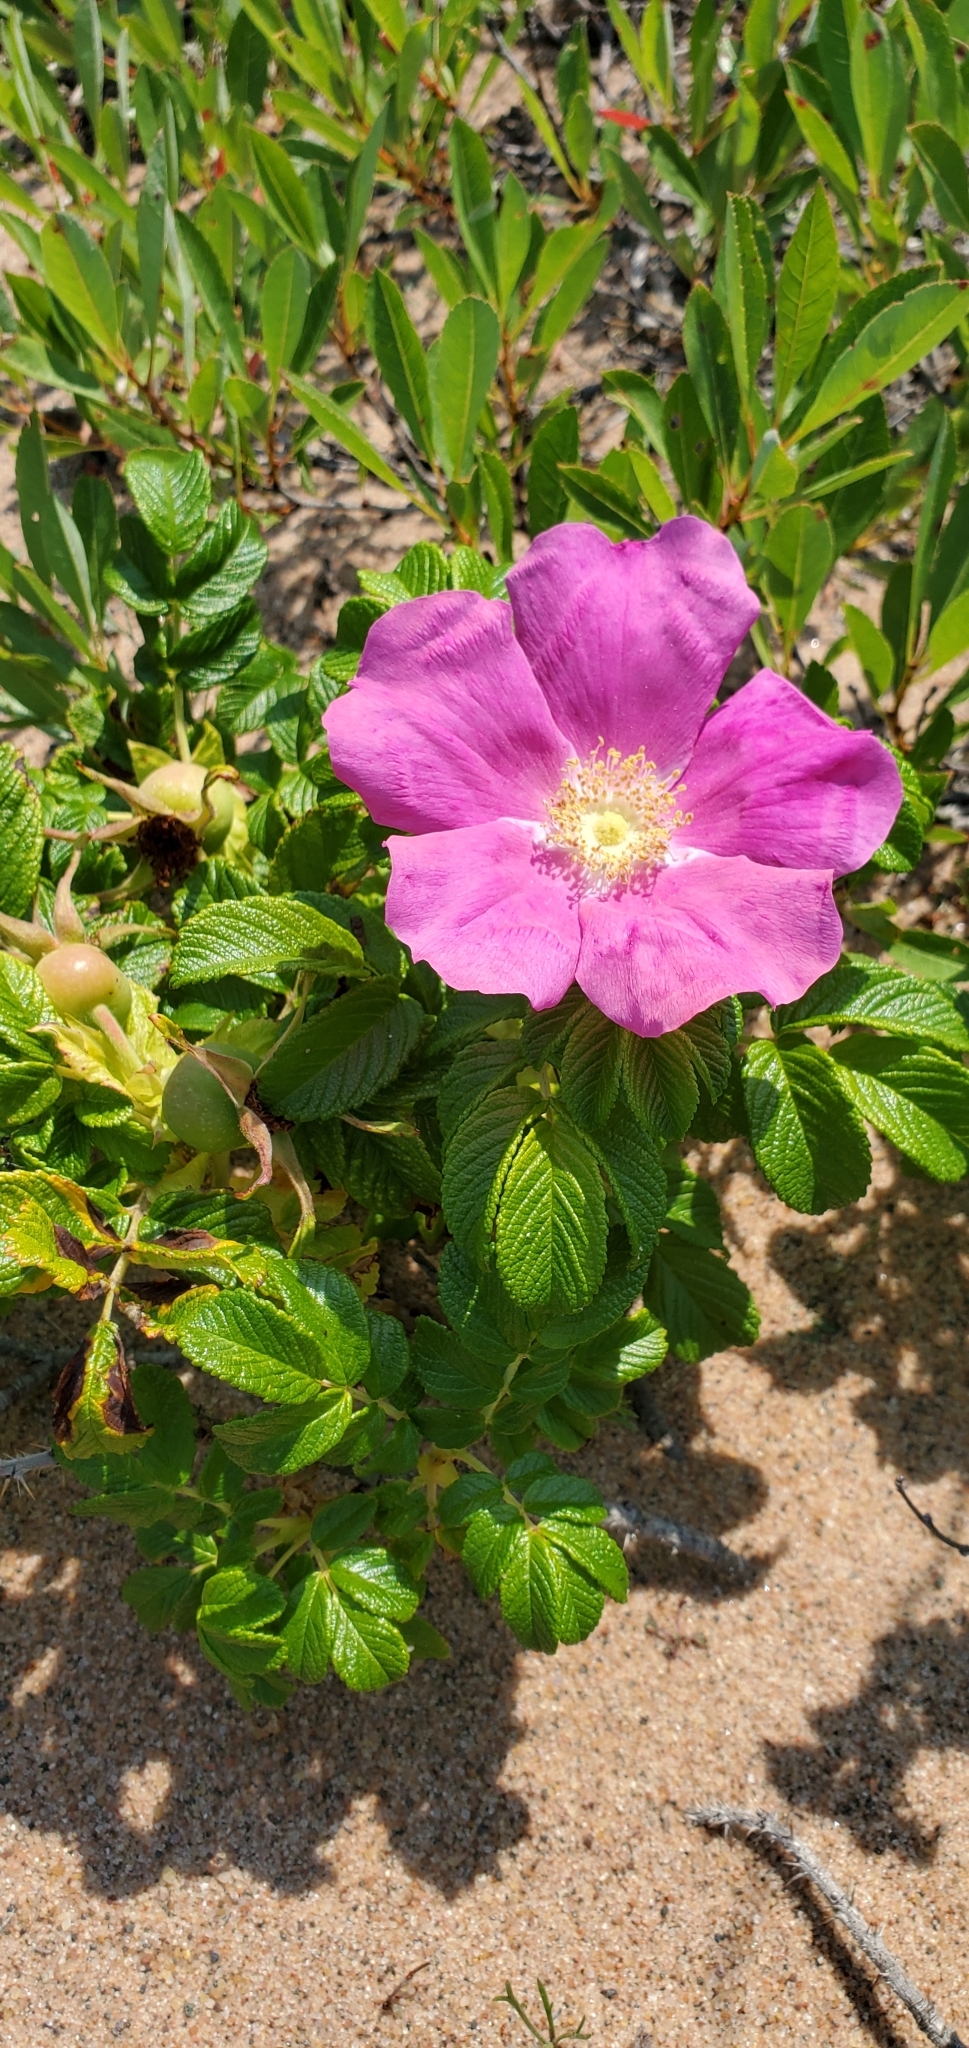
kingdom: Plantae
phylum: Tracheophyta
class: Magnoliopsida
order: Rosales
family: Rosaceae
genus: Rosa
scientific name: Rosa rugosa
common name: Japanese rose
